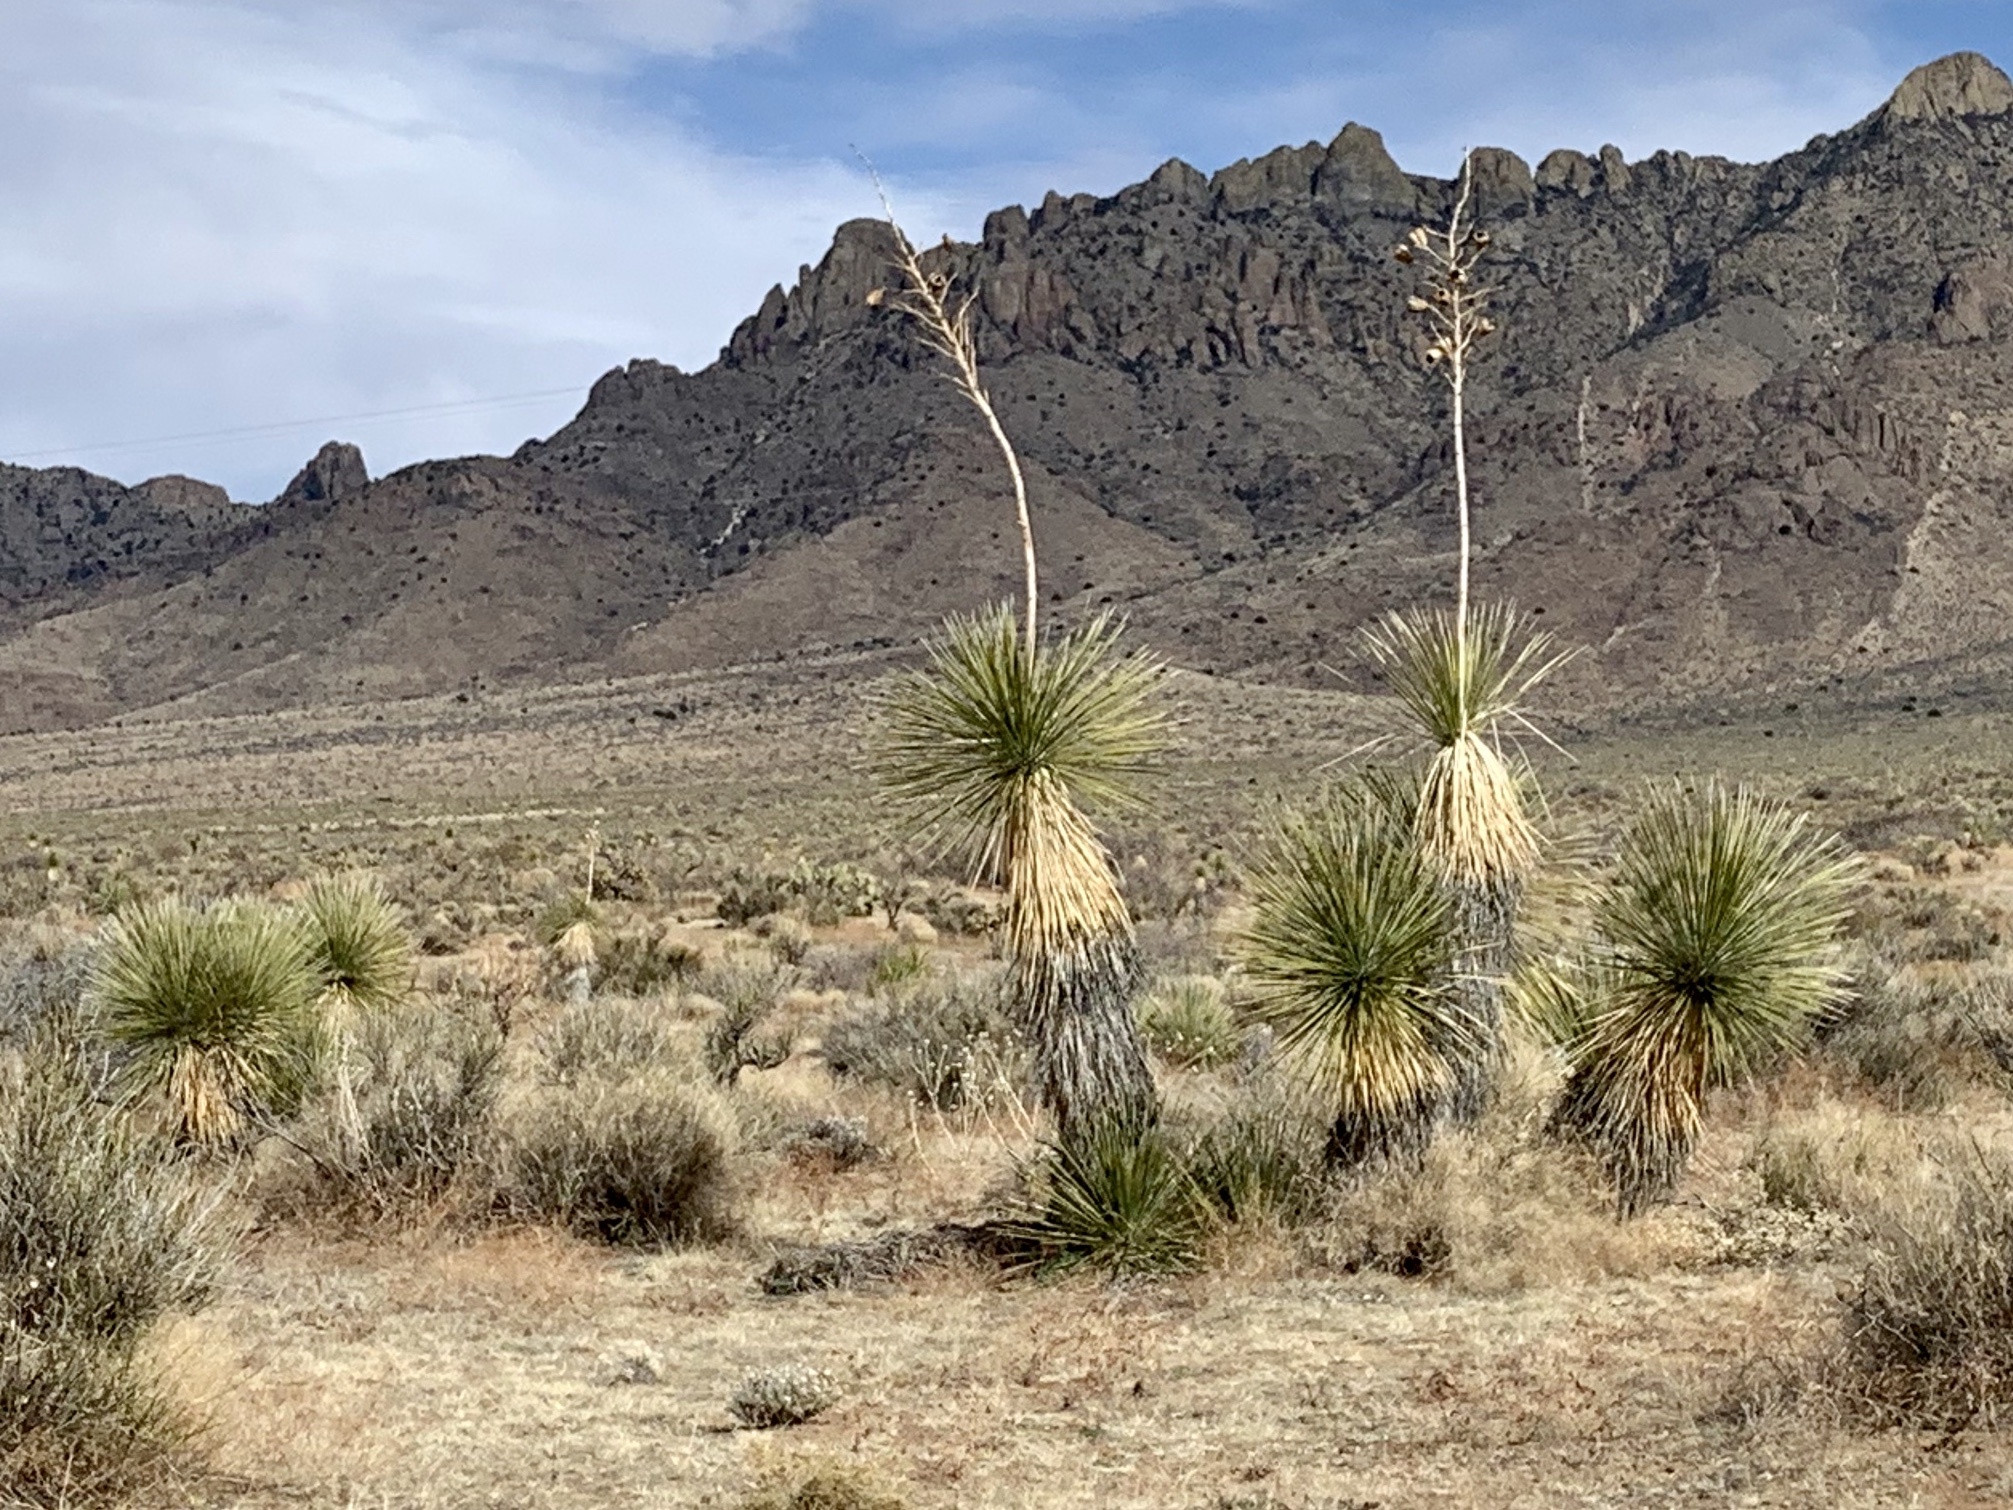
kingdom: Plantae
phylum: Tracheophyta
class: Liliopsida
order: Asparagales
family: Asparagaceae
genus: Yucca
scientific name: Yucca elata
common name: Palmella
